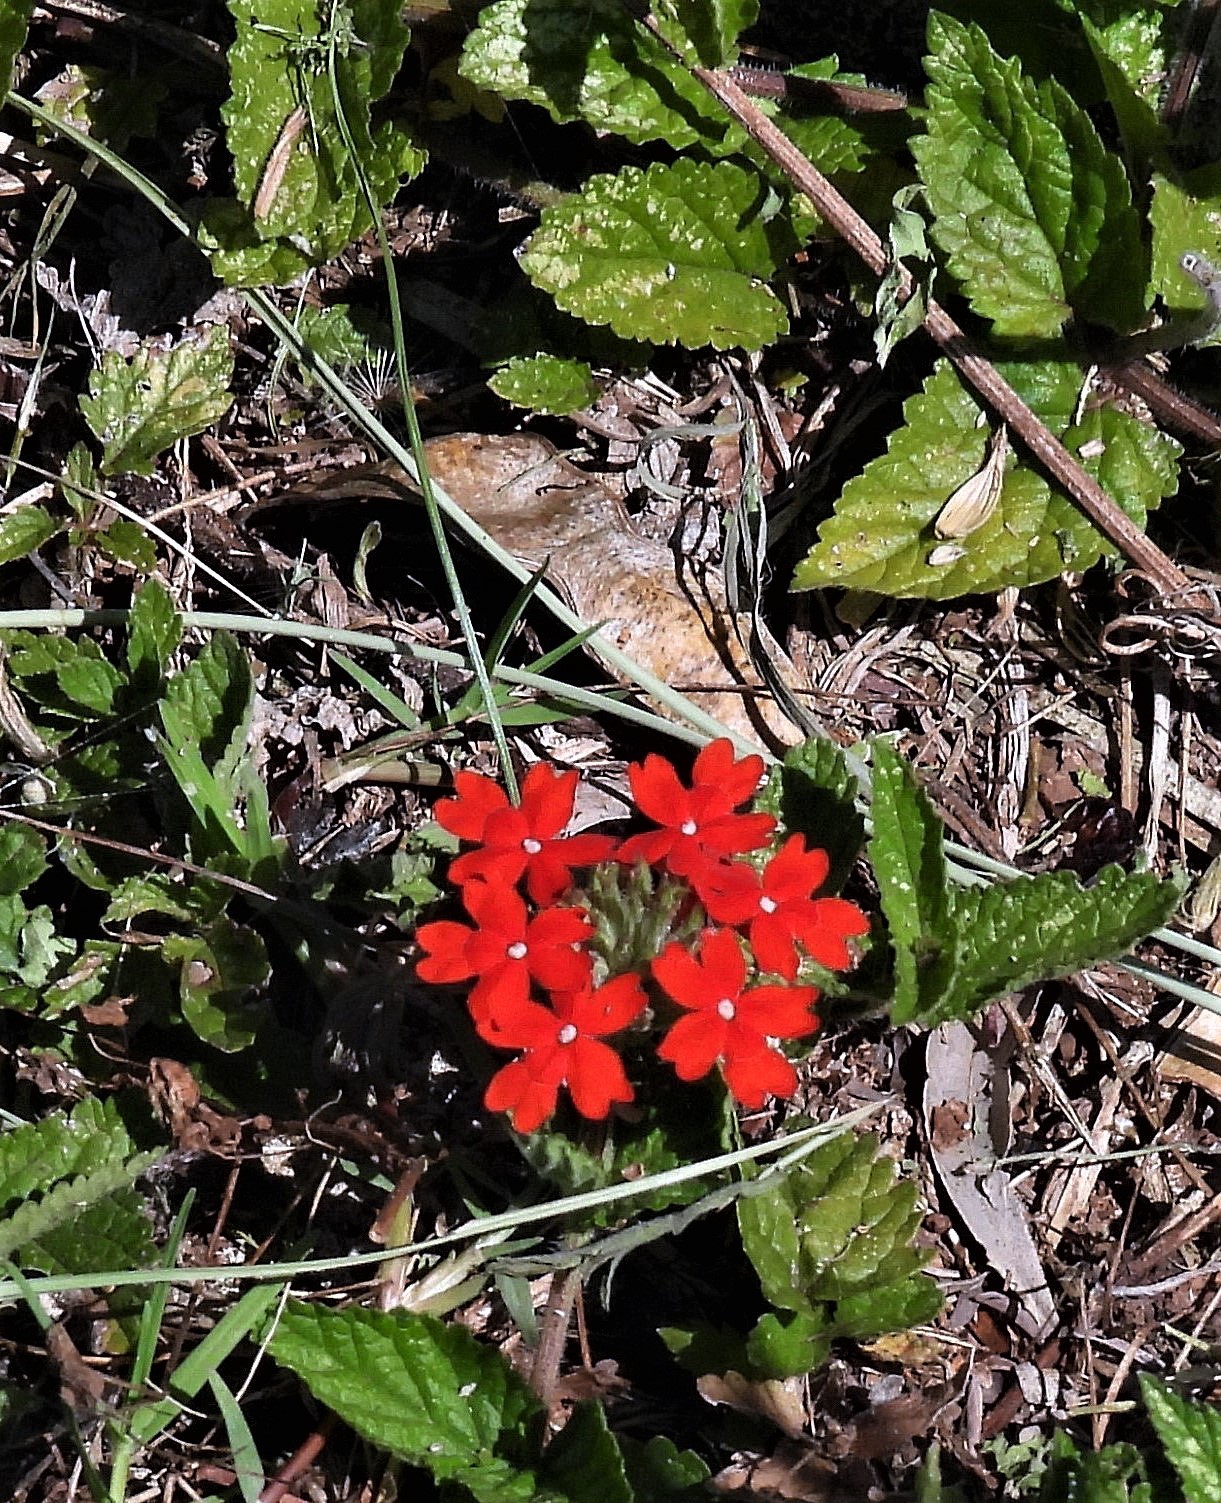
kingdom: Plantae
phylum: Tracheophyta
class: Magnoliopsida
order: Lamiales
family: Verbenaceae
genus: Verbena
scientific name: Verbena peruviana
